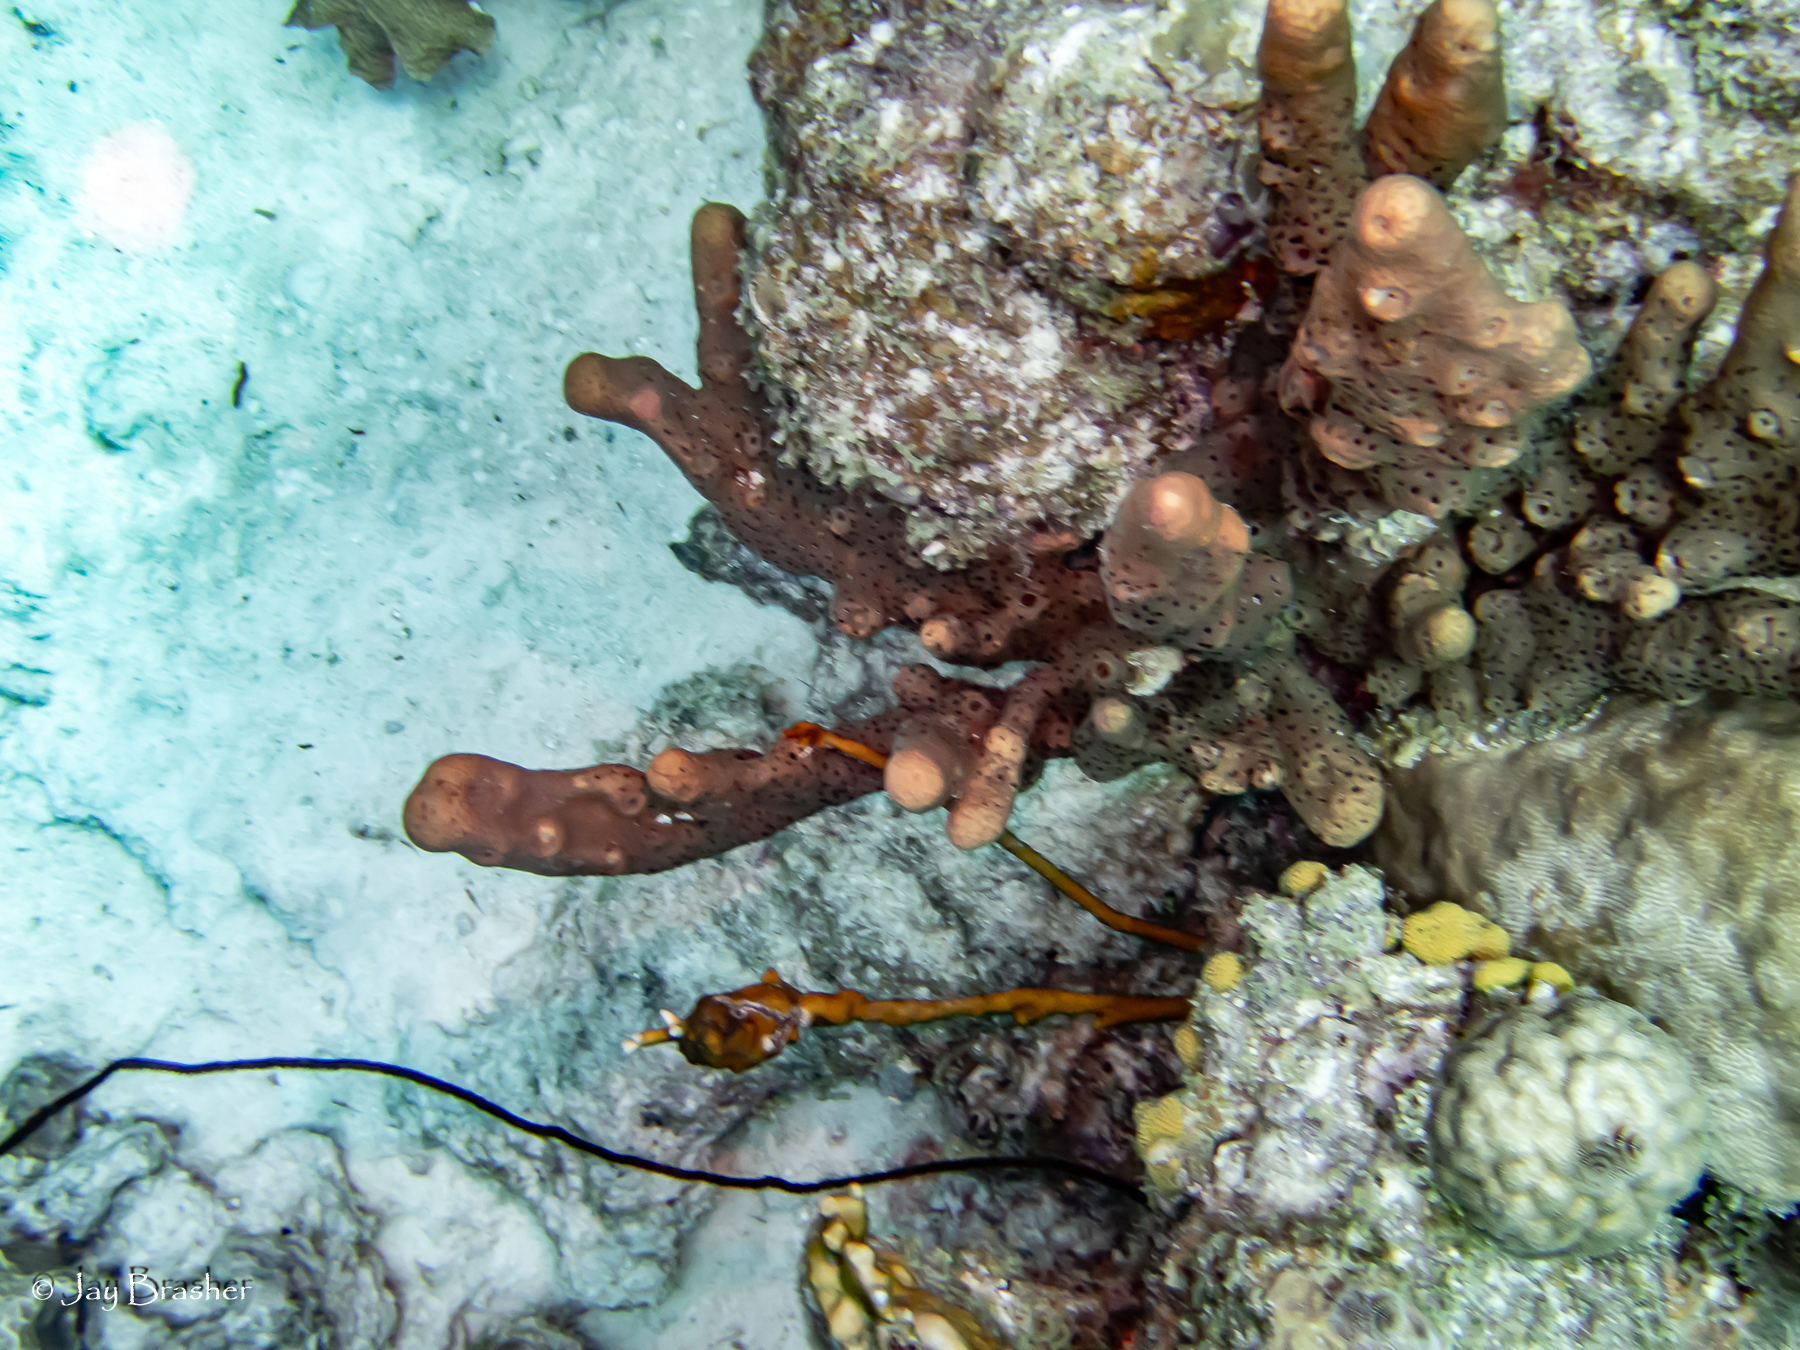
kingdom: Animalia
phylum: Porifera
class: Demospongiae
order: Agelasida
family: Agelasidae
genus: Agelas
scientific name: Agelas conifera
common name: Brown tube sponge
